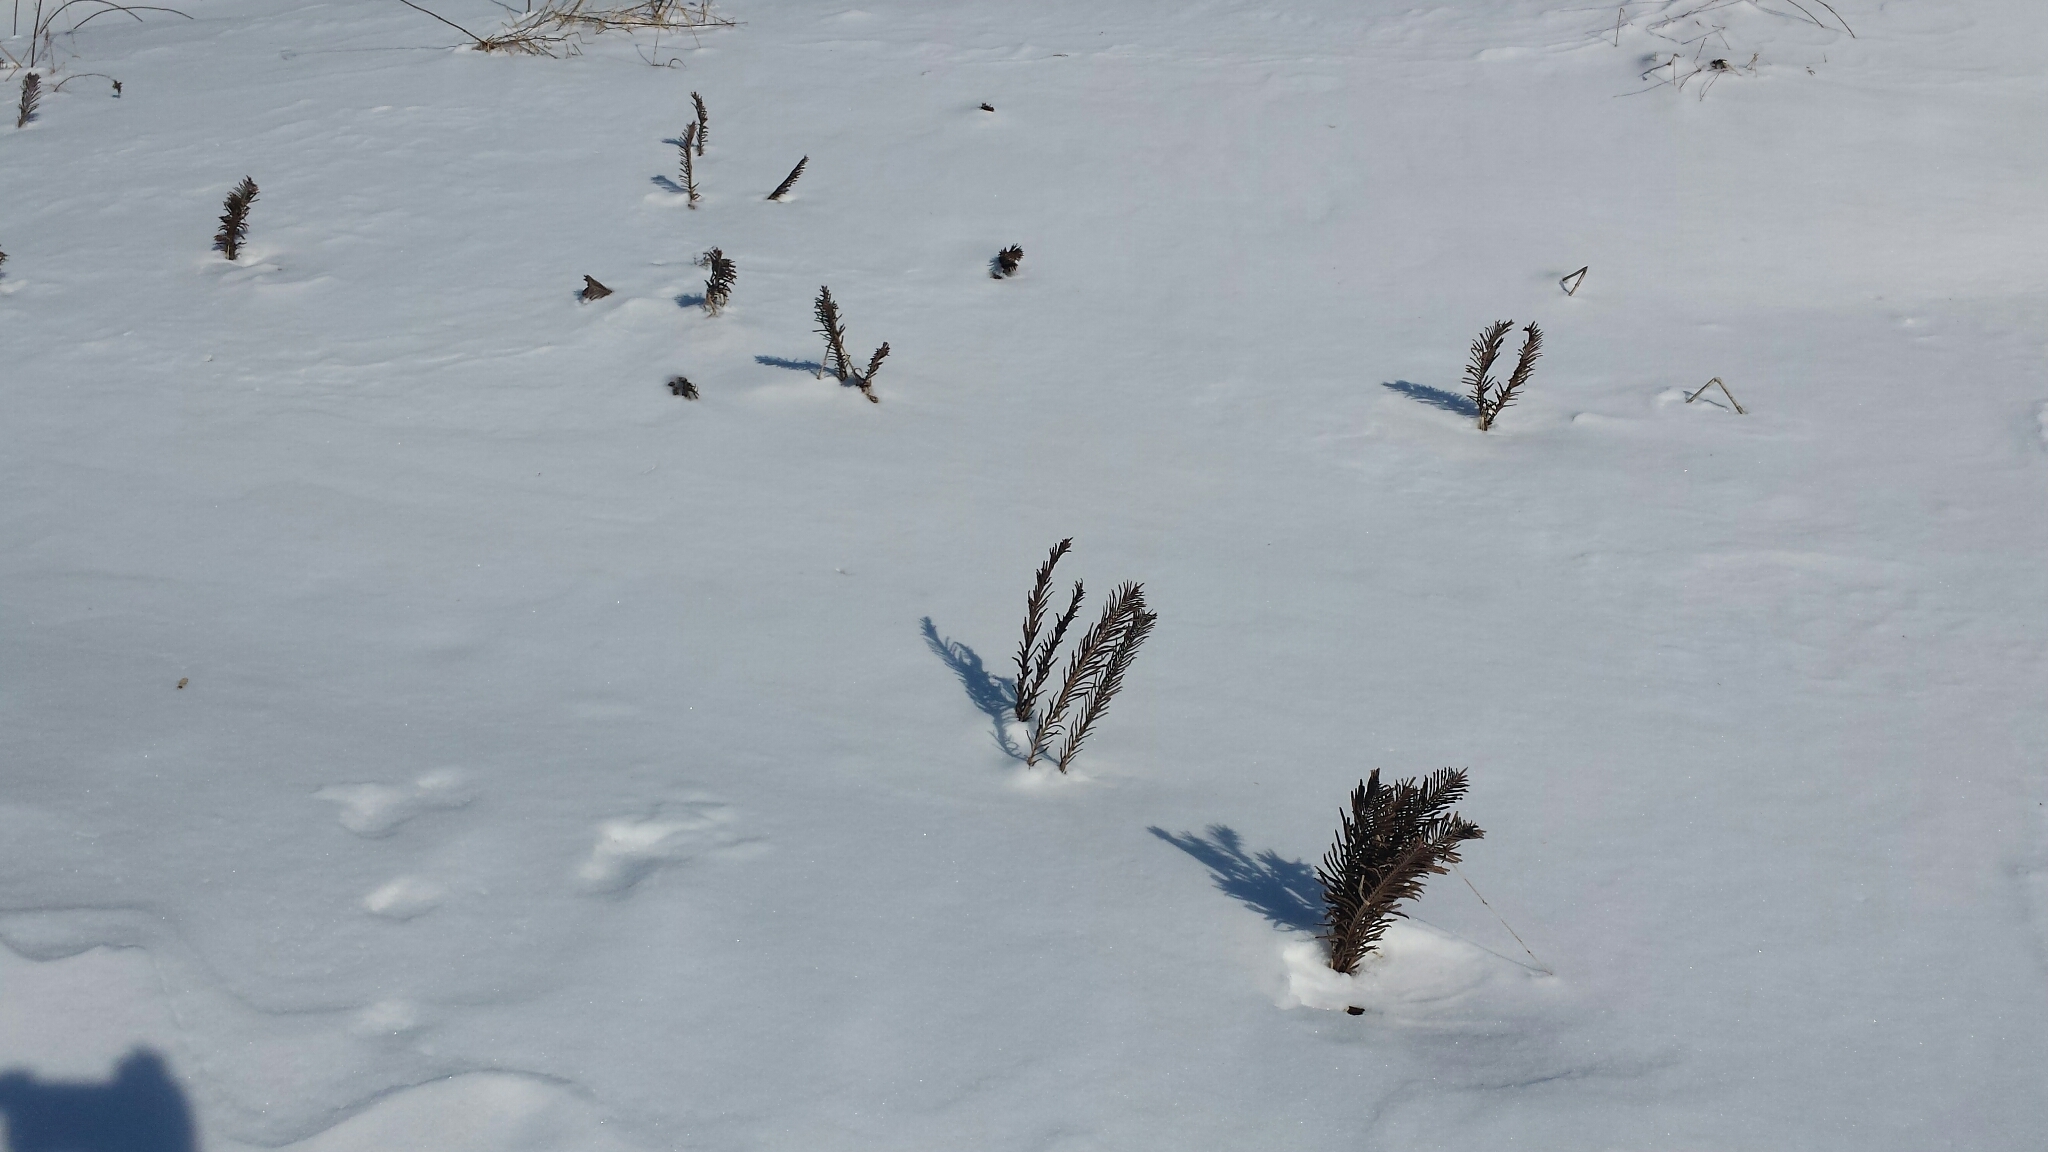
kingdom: Plantae
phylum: Tracheophyta
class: Polypodiopsida
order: Polypodiales
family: Onocleaceae
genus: Matteuccia
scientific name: Matteuccia struthiopteris
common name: Ostrich fern
